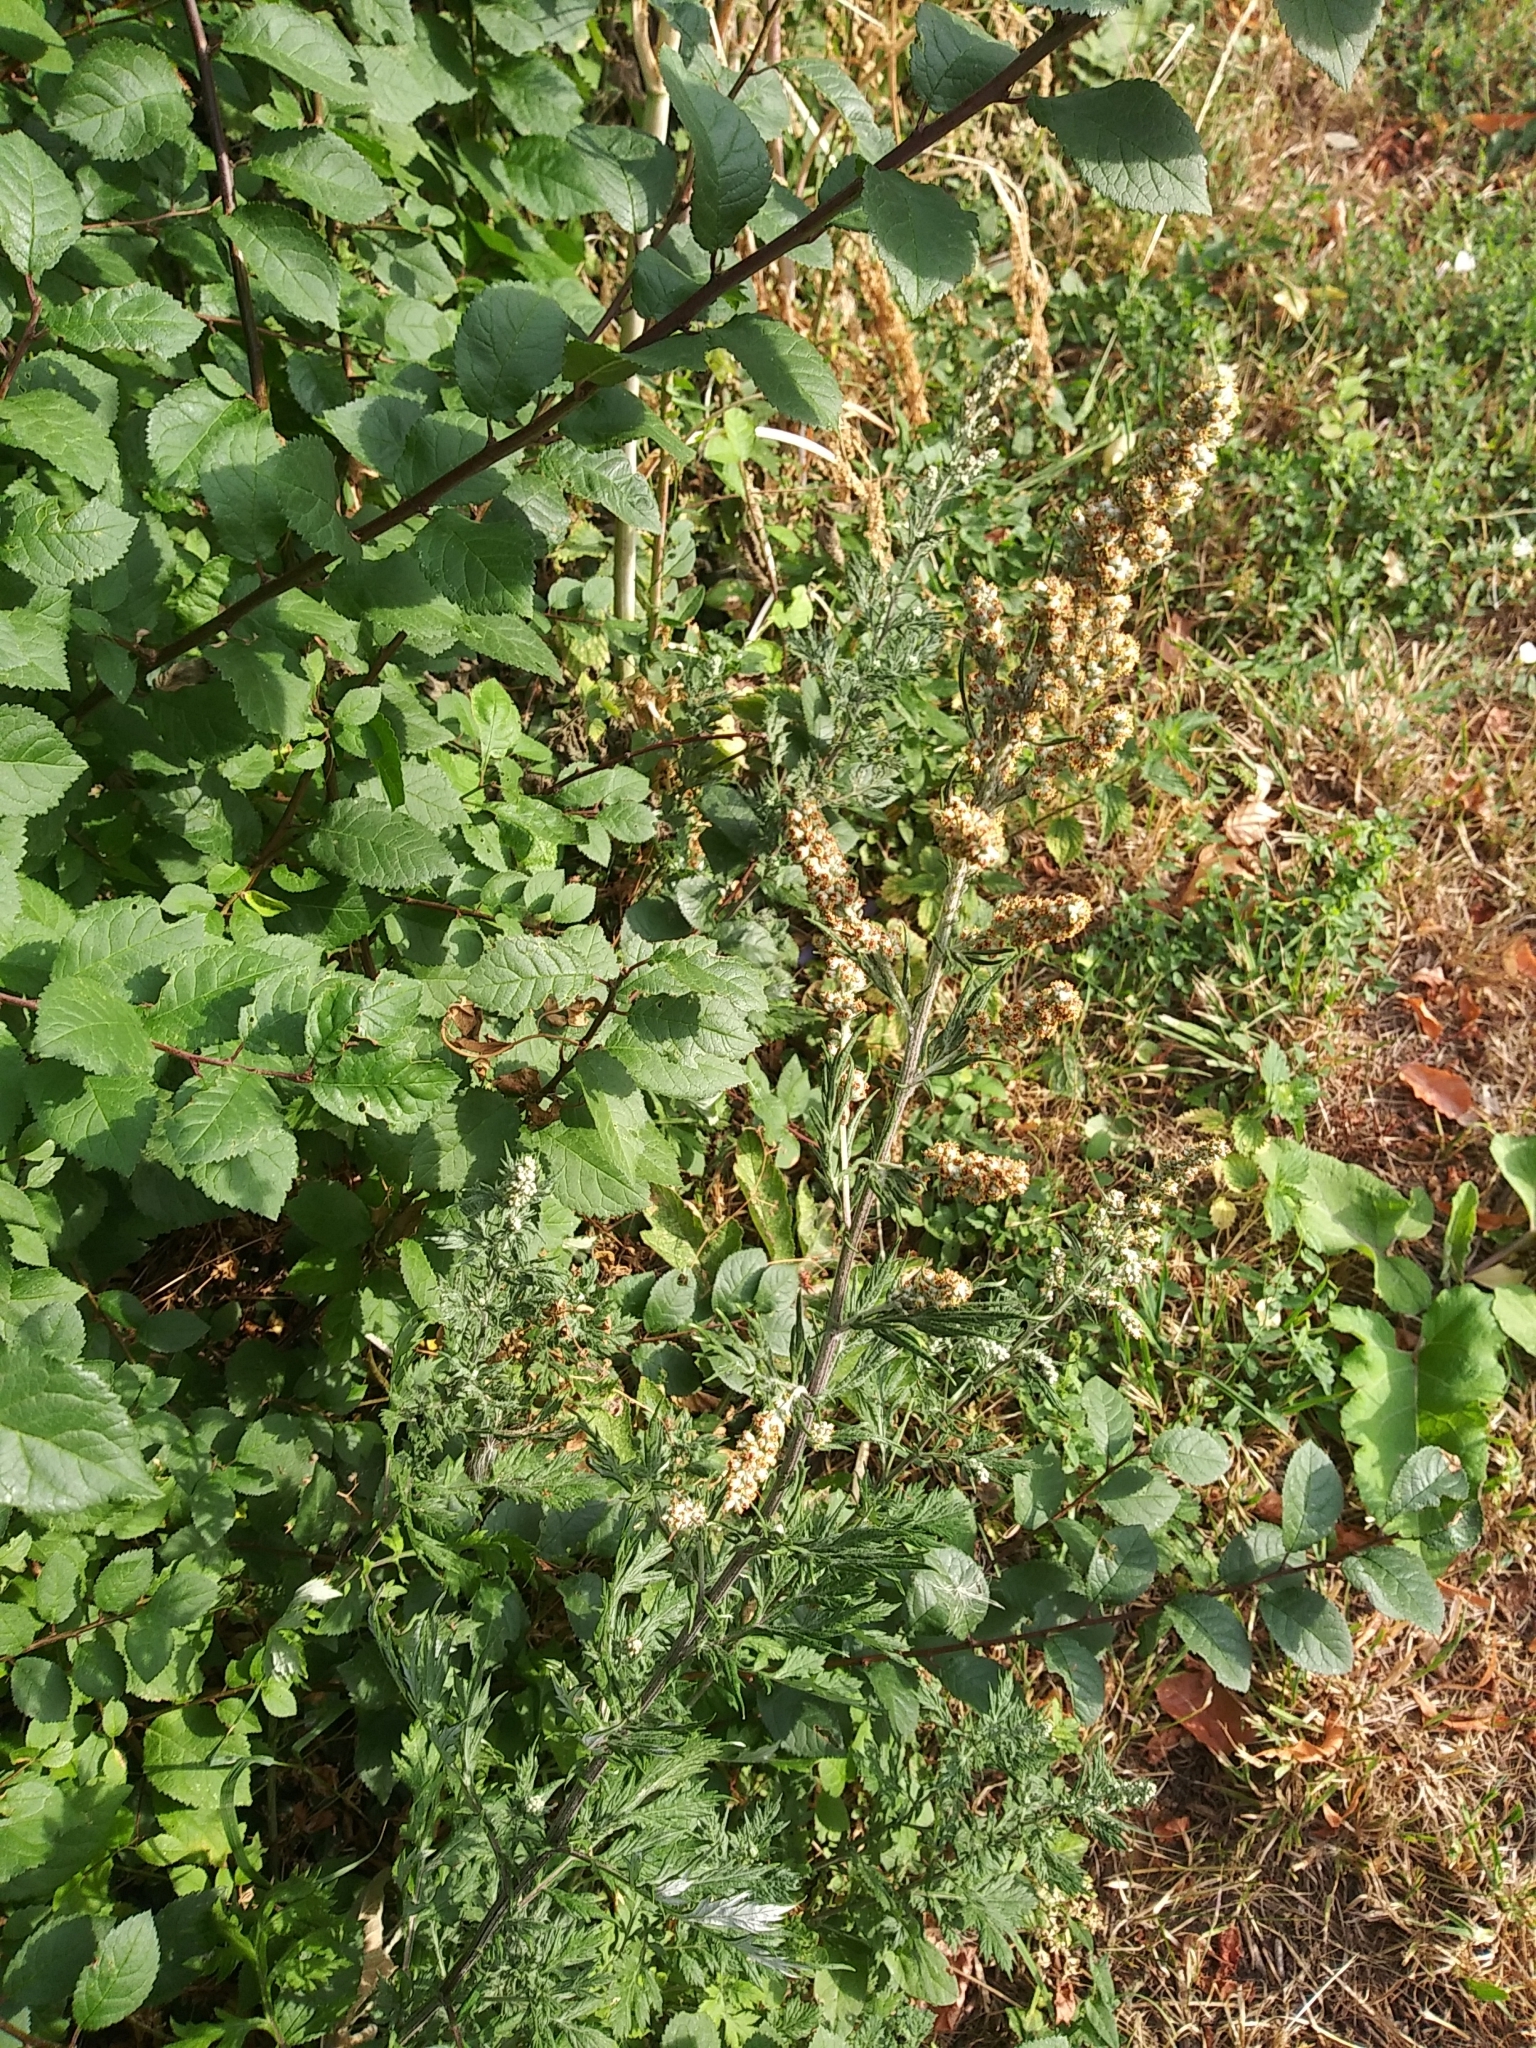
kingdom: Plantae
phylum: Tracheophyta
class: Magnoliopsida
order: Asterales
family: Asteraceae
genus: Artemisia
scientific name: Artemisia vulgaris
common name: Mugwort
